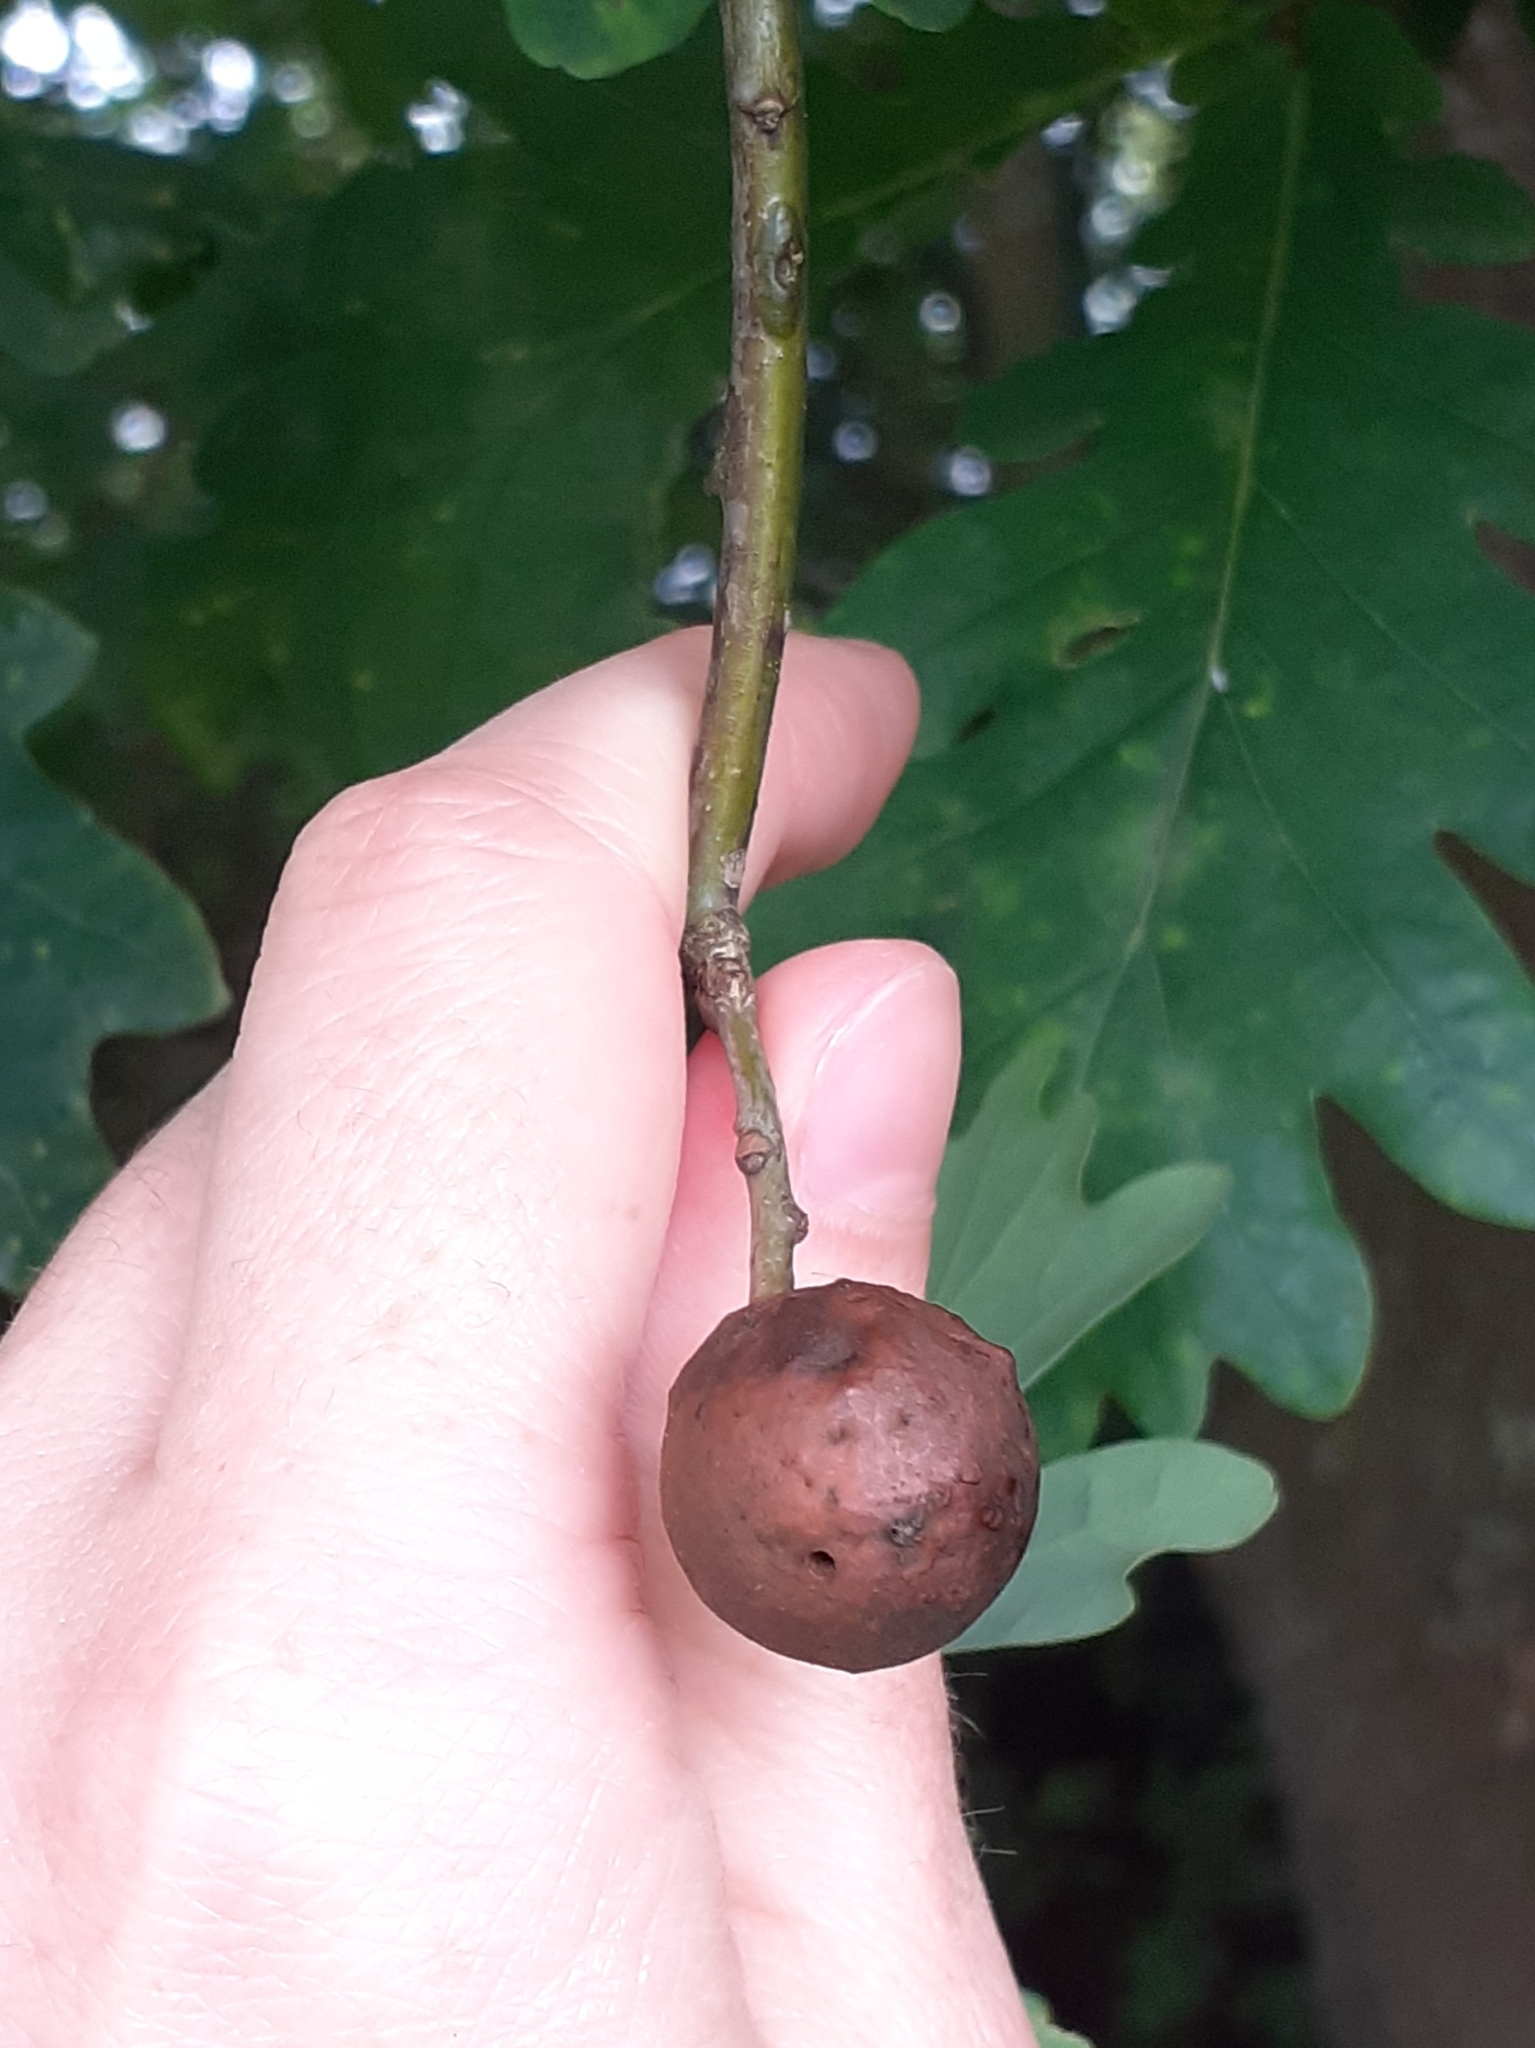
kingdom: Animalia
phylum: Arthropoda
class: Insecta
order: Hymenoptera
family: Cynipidae
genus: Andricus
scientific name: Andricus kollari
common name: Marble gall
